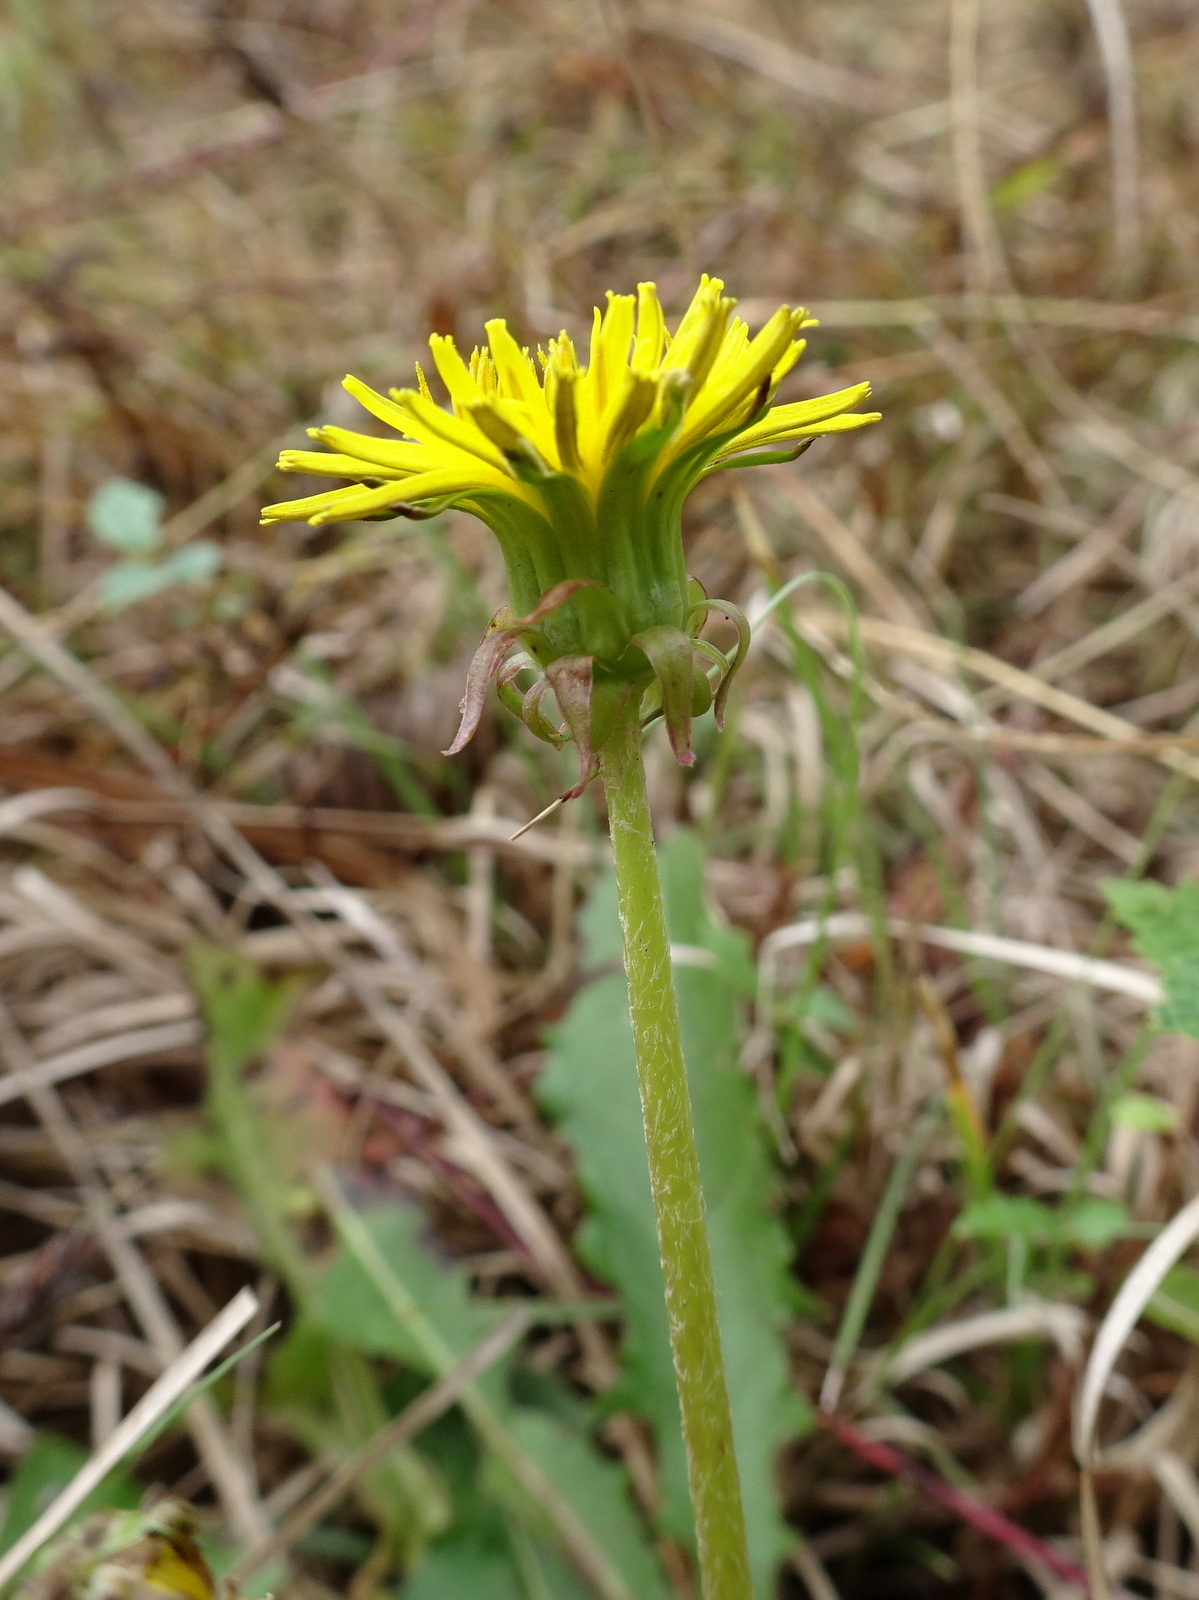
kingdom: Plantae
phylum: Tracheophyta
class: Magnoliopsida
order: Asterales
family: Asteraceae
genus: Taraxacum
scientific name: Taraxacum officinale
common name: Common dandelion
